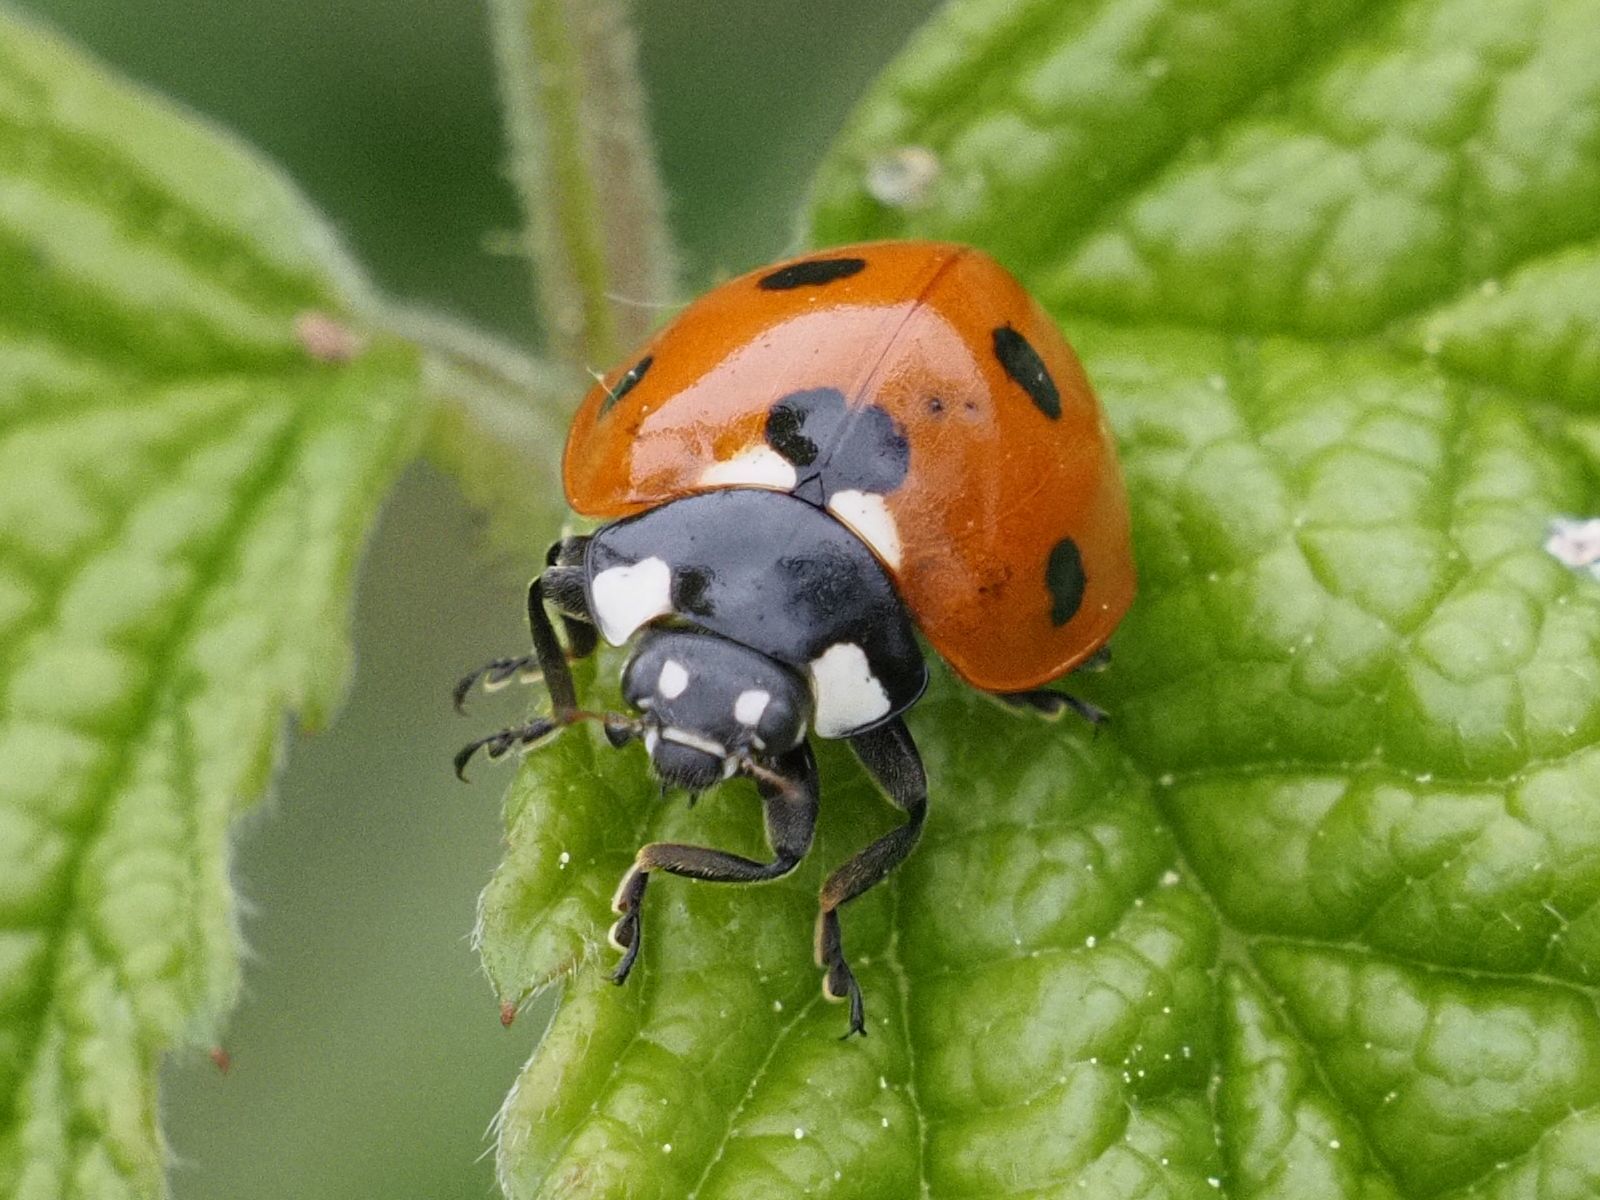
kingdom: Animalia
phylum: Arthropoda
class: Insecta
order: Coleoptera
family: Coccinellidae
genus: Coccinella
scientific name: Coccinella septempunctata
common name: Sevenspotted lady beetle
